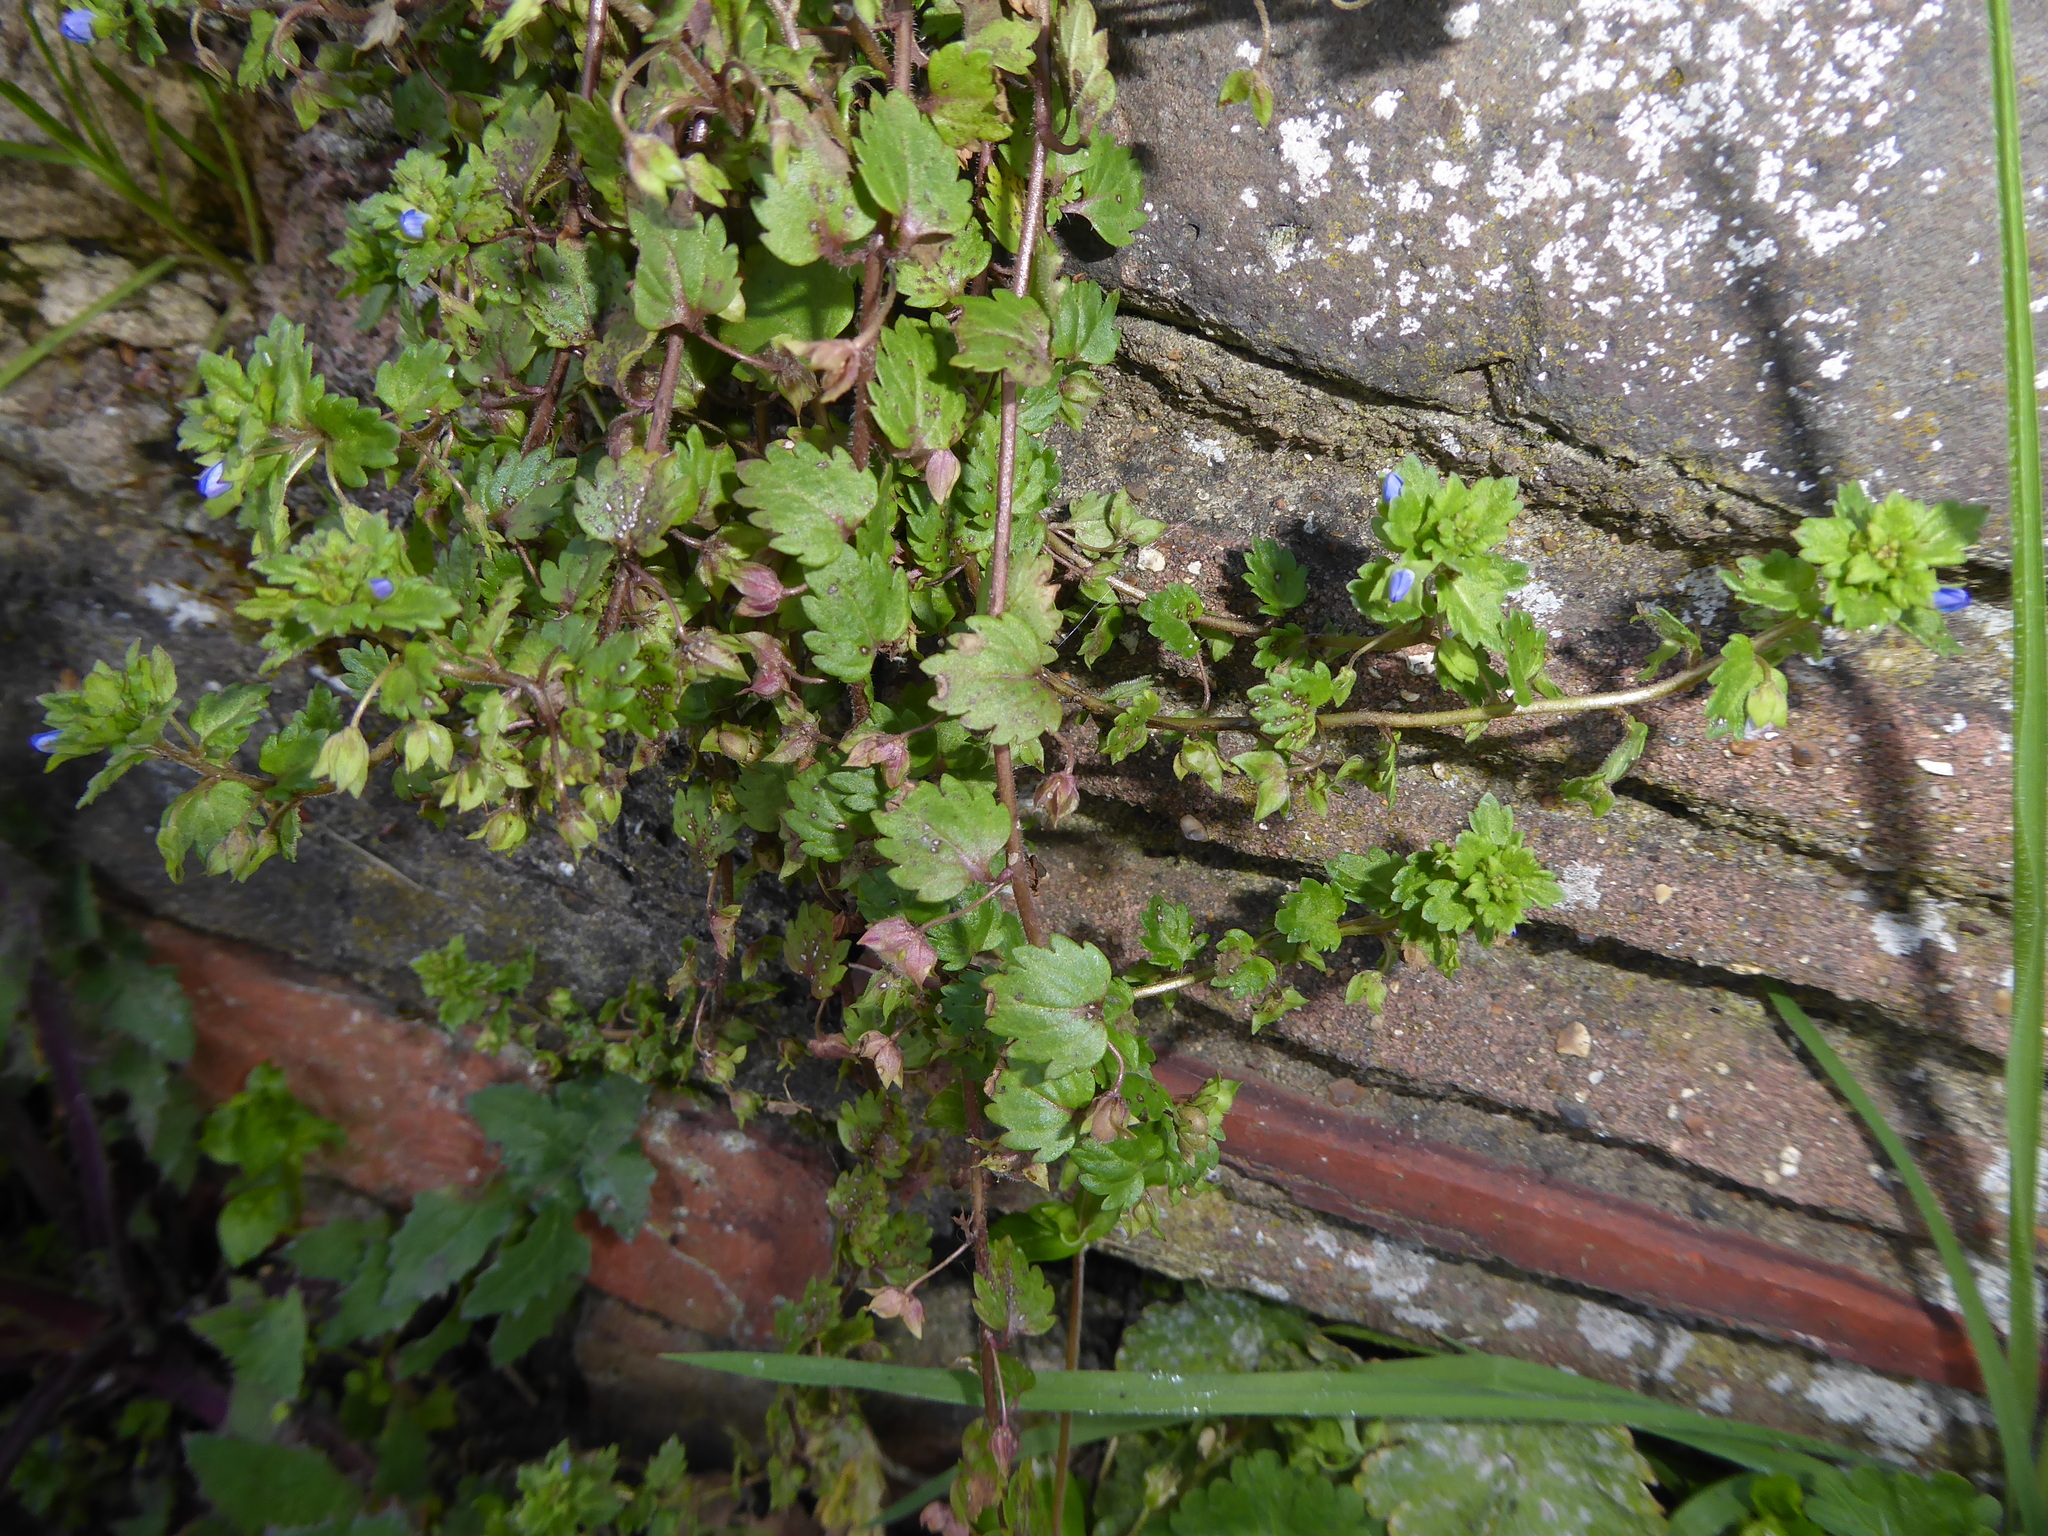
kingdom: Plantae
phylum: Tracheophyta
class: Magnoliopsida
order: Lamiales
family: Plantaginaceae
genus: Veronica
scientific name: Veronica polita
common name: Grey field-speedwell
